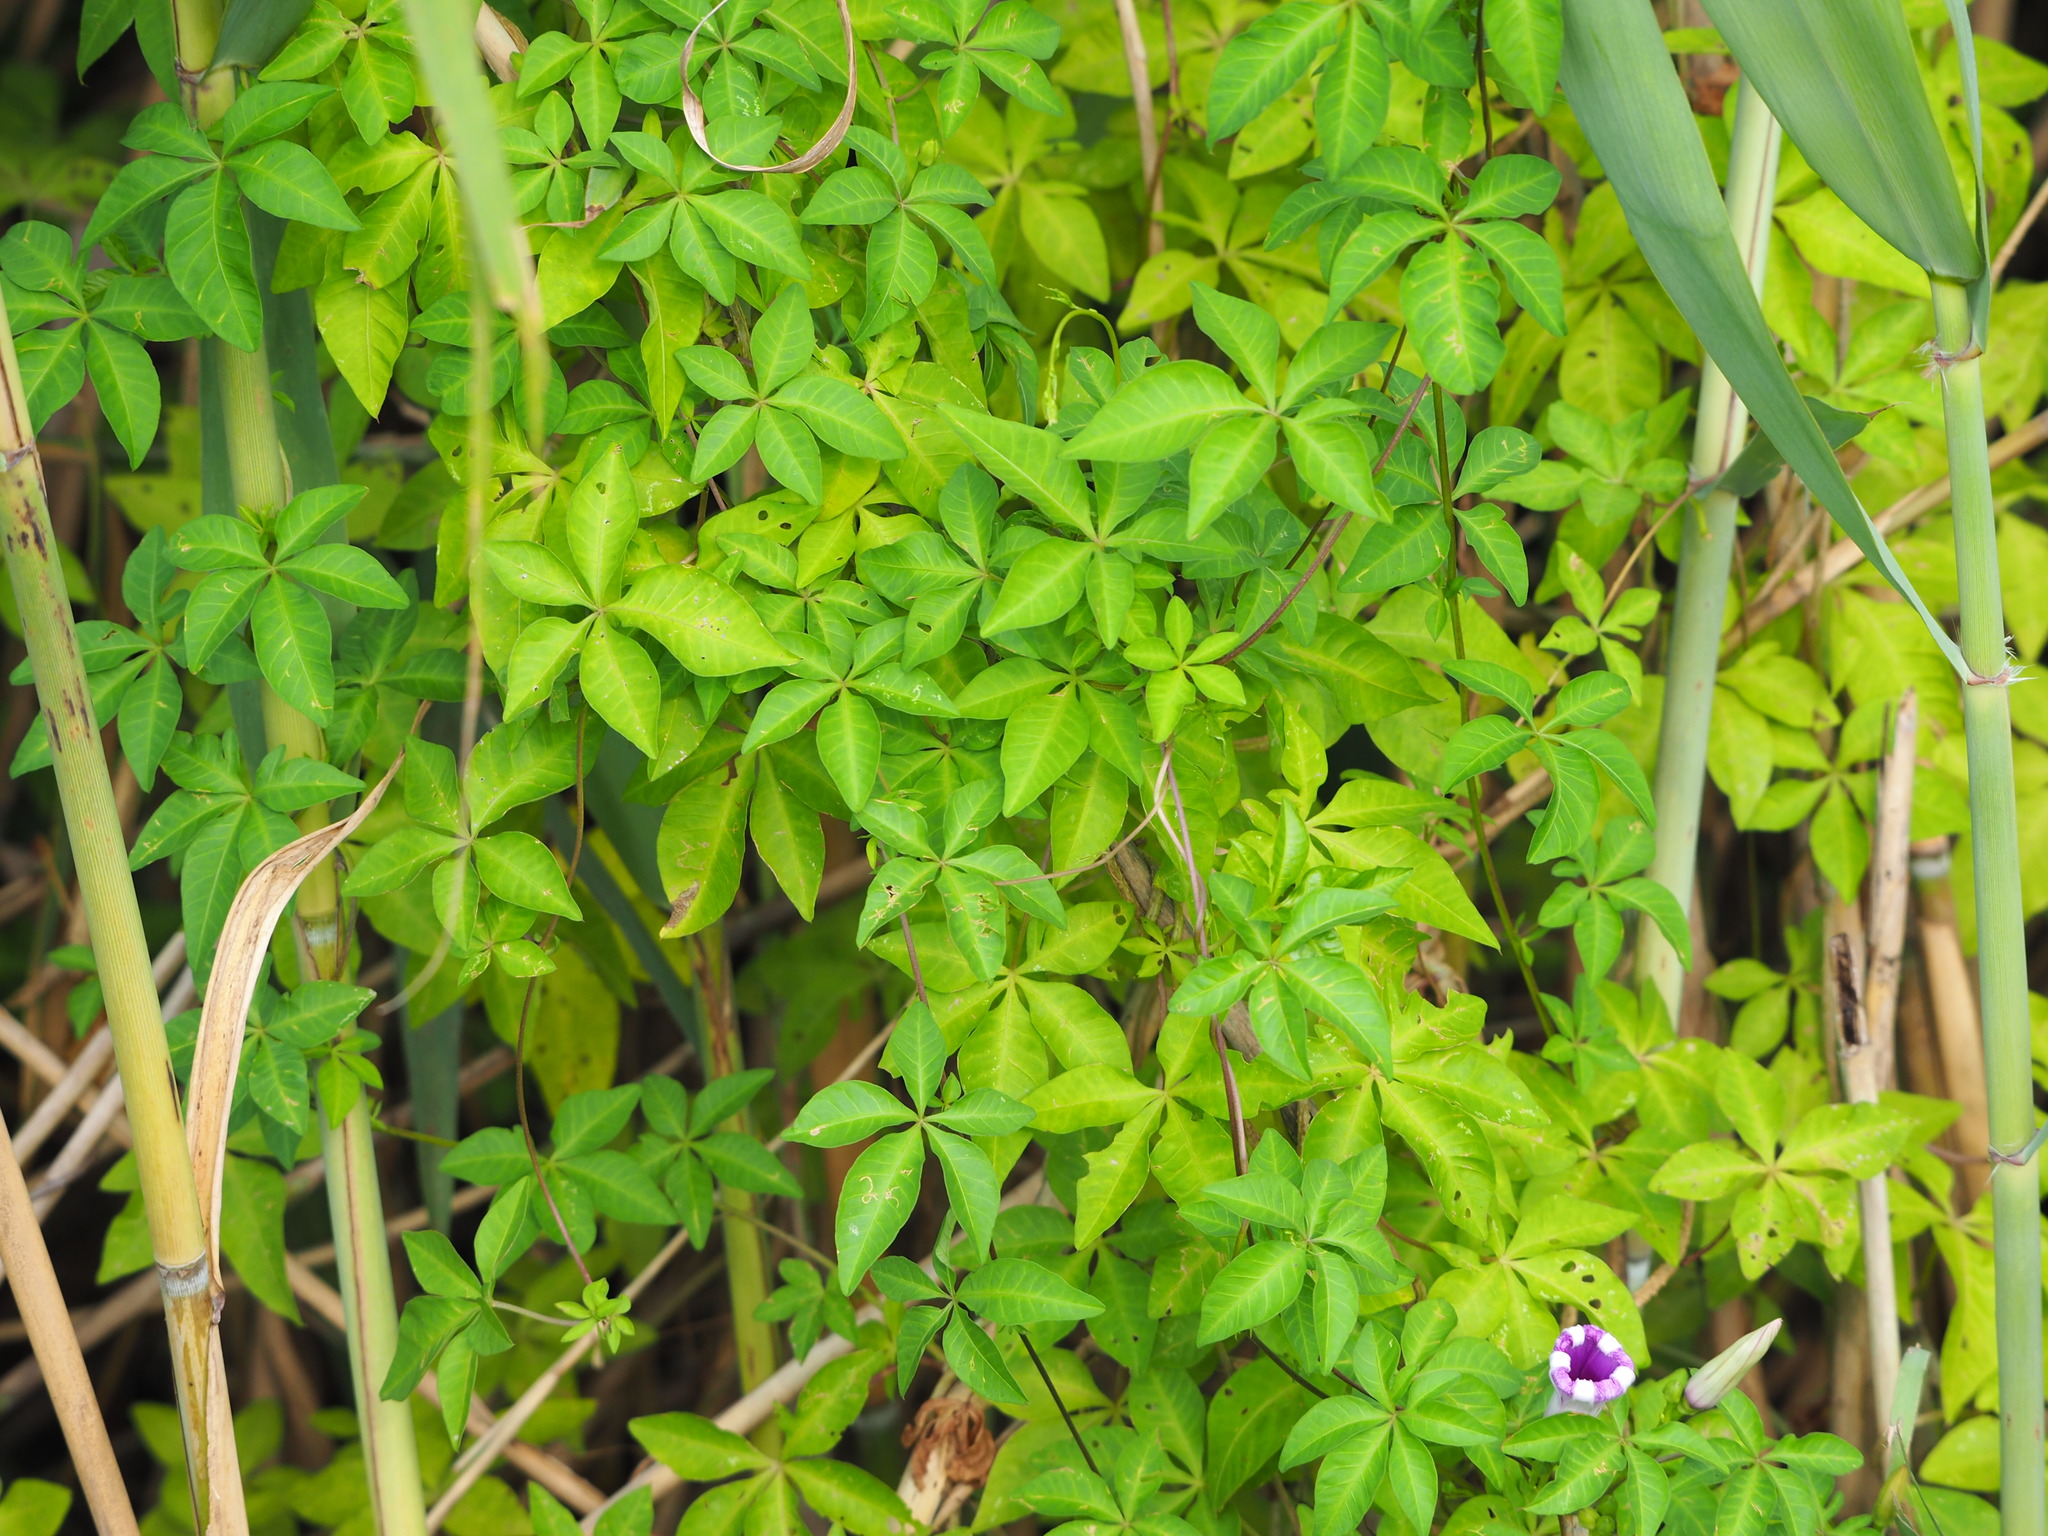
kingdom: Plantae
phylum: Tracheophyta
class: Magnoliopsida
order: Solanales
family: Convolvulaceae
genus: Ipomoea
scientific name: Ipomoea cairica
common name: Mile a minute vine
